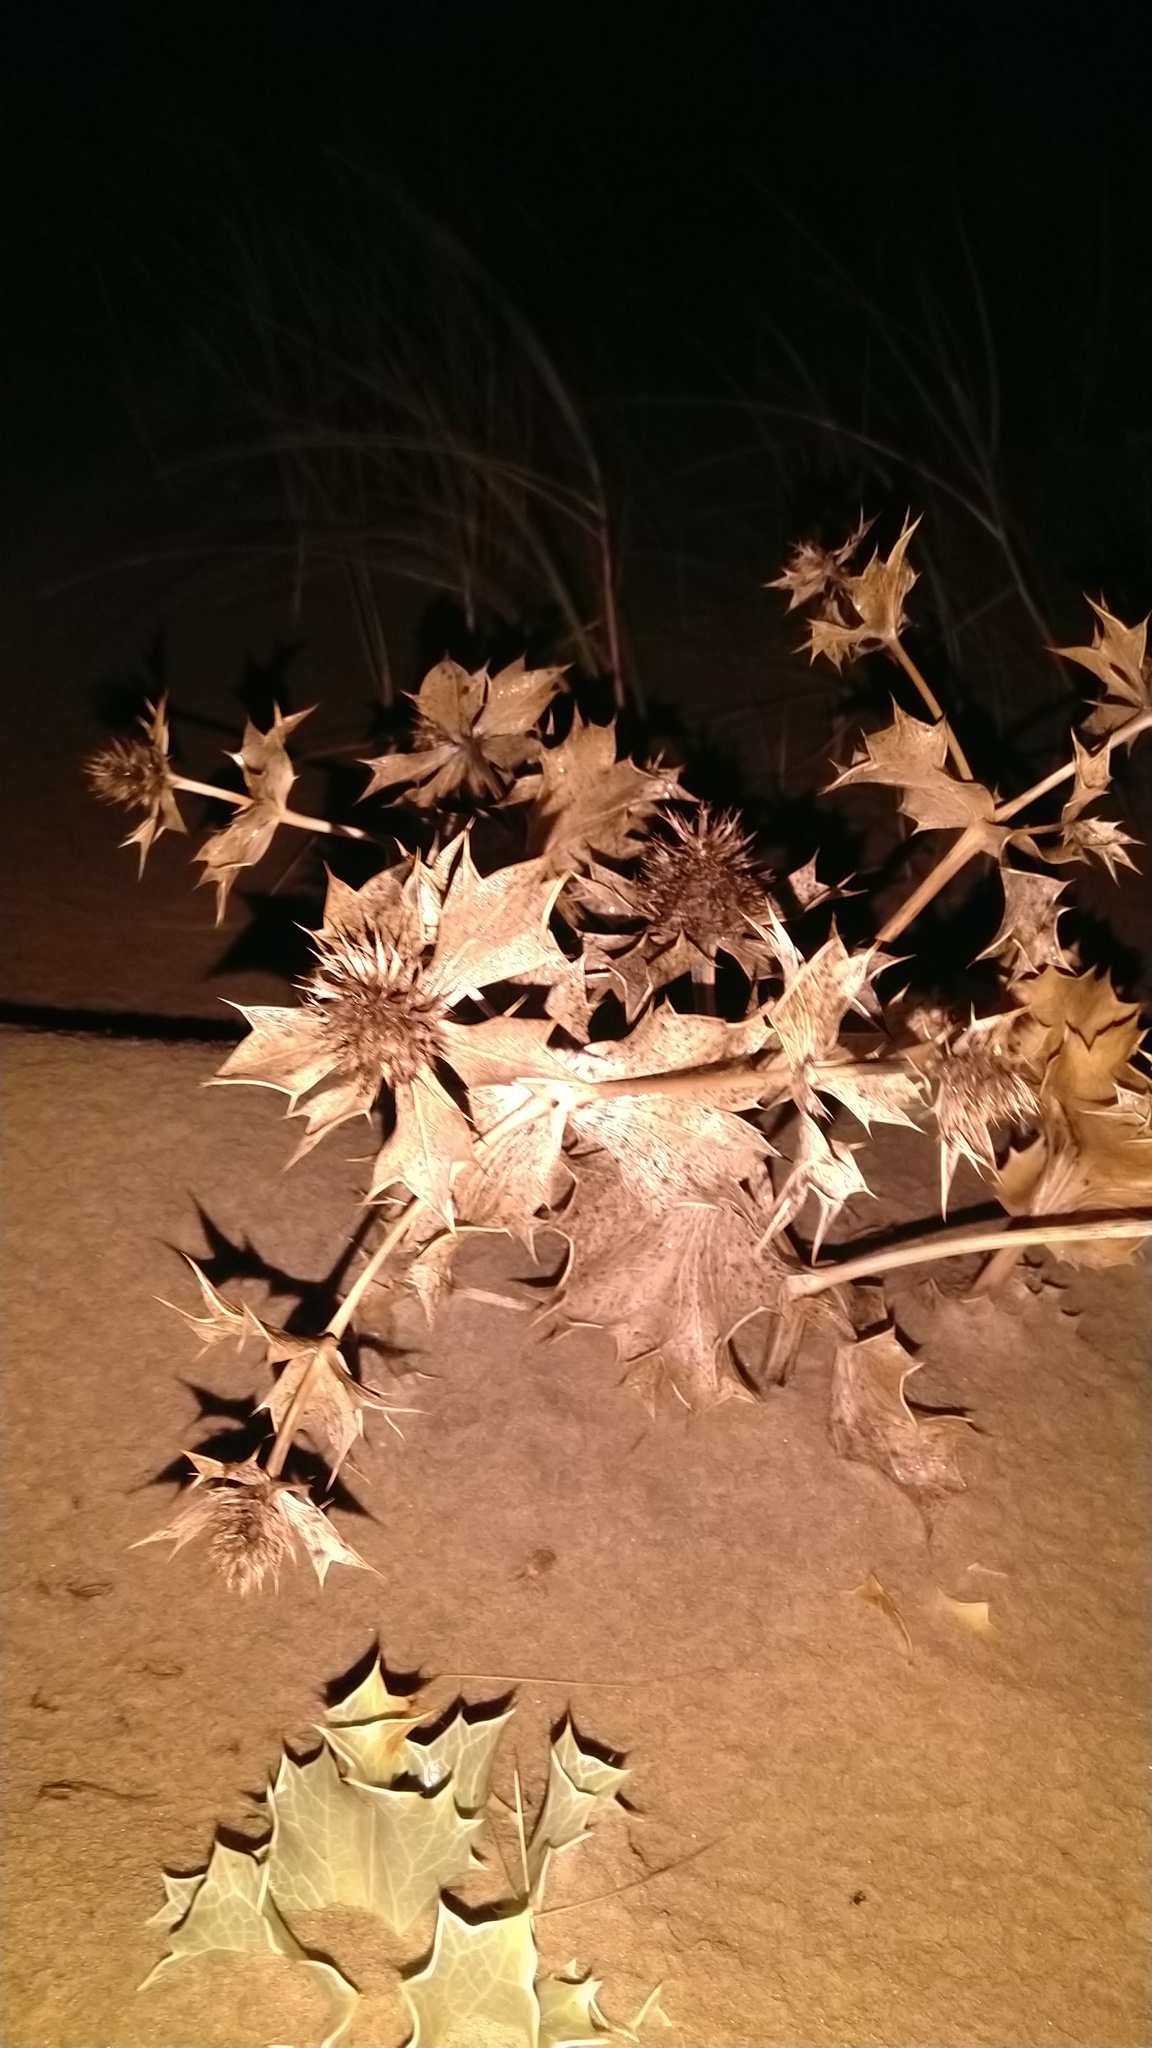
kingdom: Plantae
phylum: Tracheophyta
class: Magnoliopsida
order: Apiales
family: Apiaceae
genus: Eryngium
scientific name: Eryngium maritimum
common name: Sea-holly
